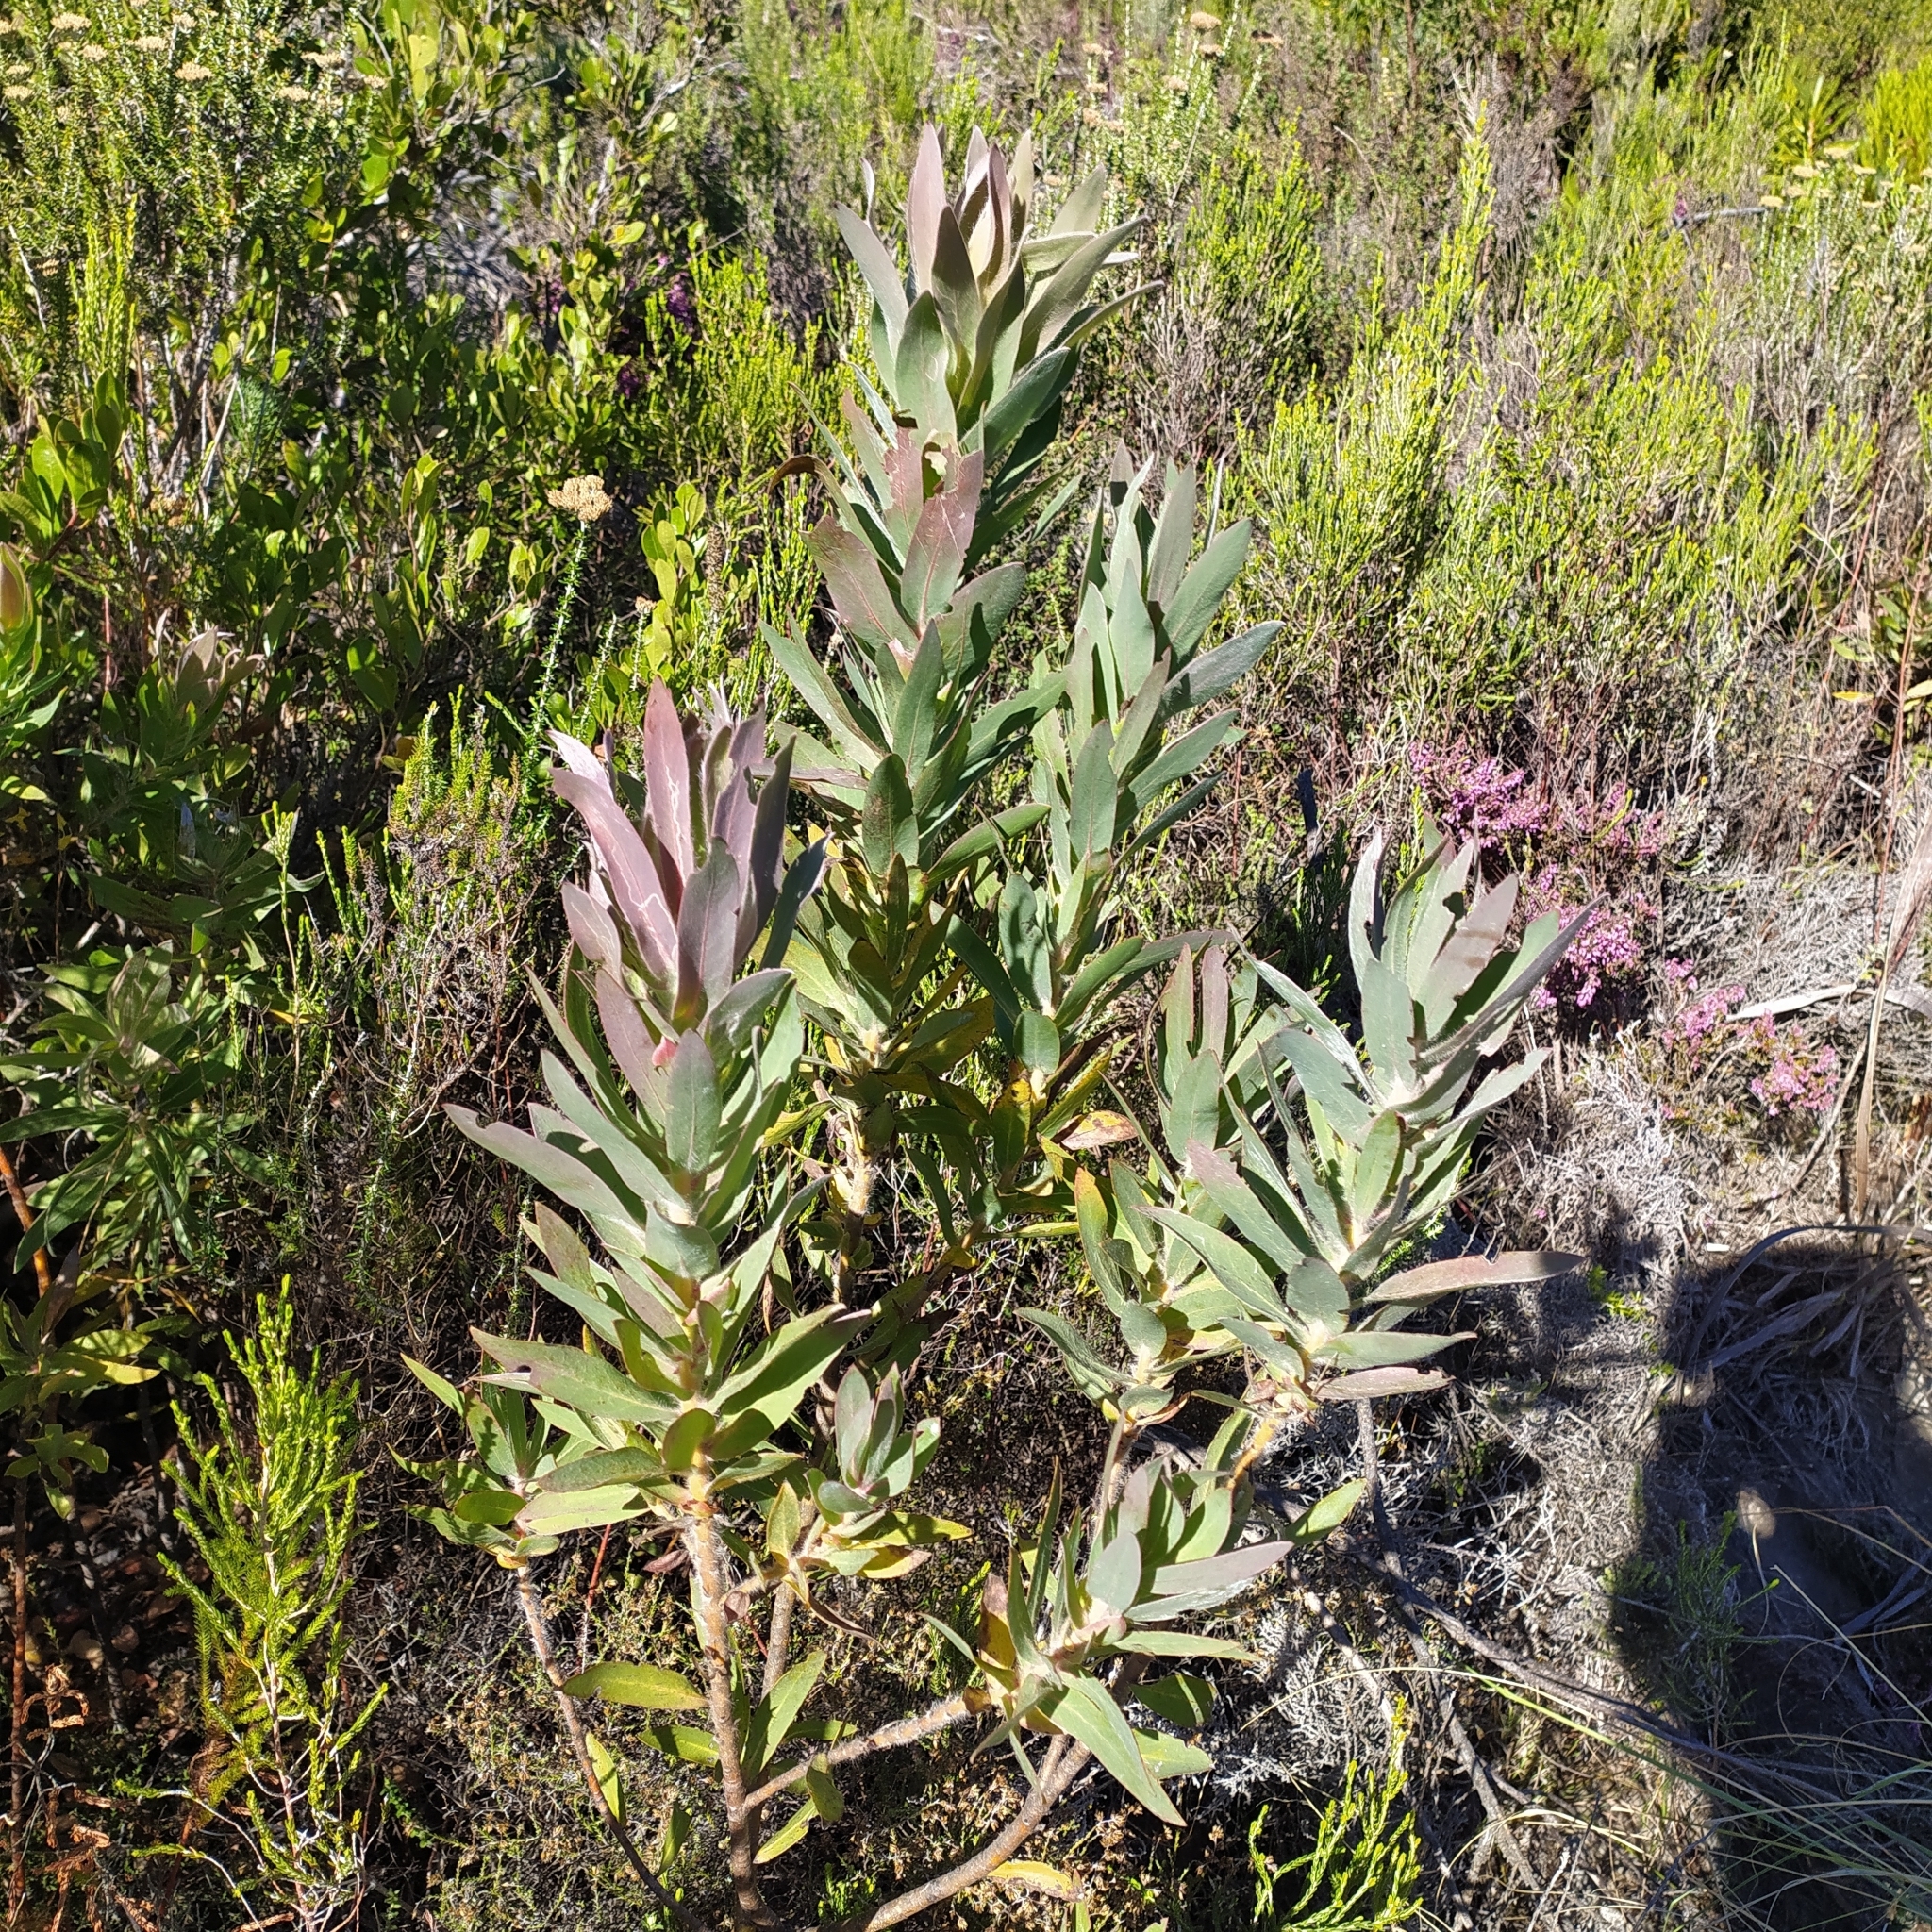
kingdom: Plantae
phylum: Tracheophyta
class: Magnoliopsida
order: Proteales
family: Proteaceae
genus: Protea
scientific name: Protea coronata
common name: Green sugarbush
